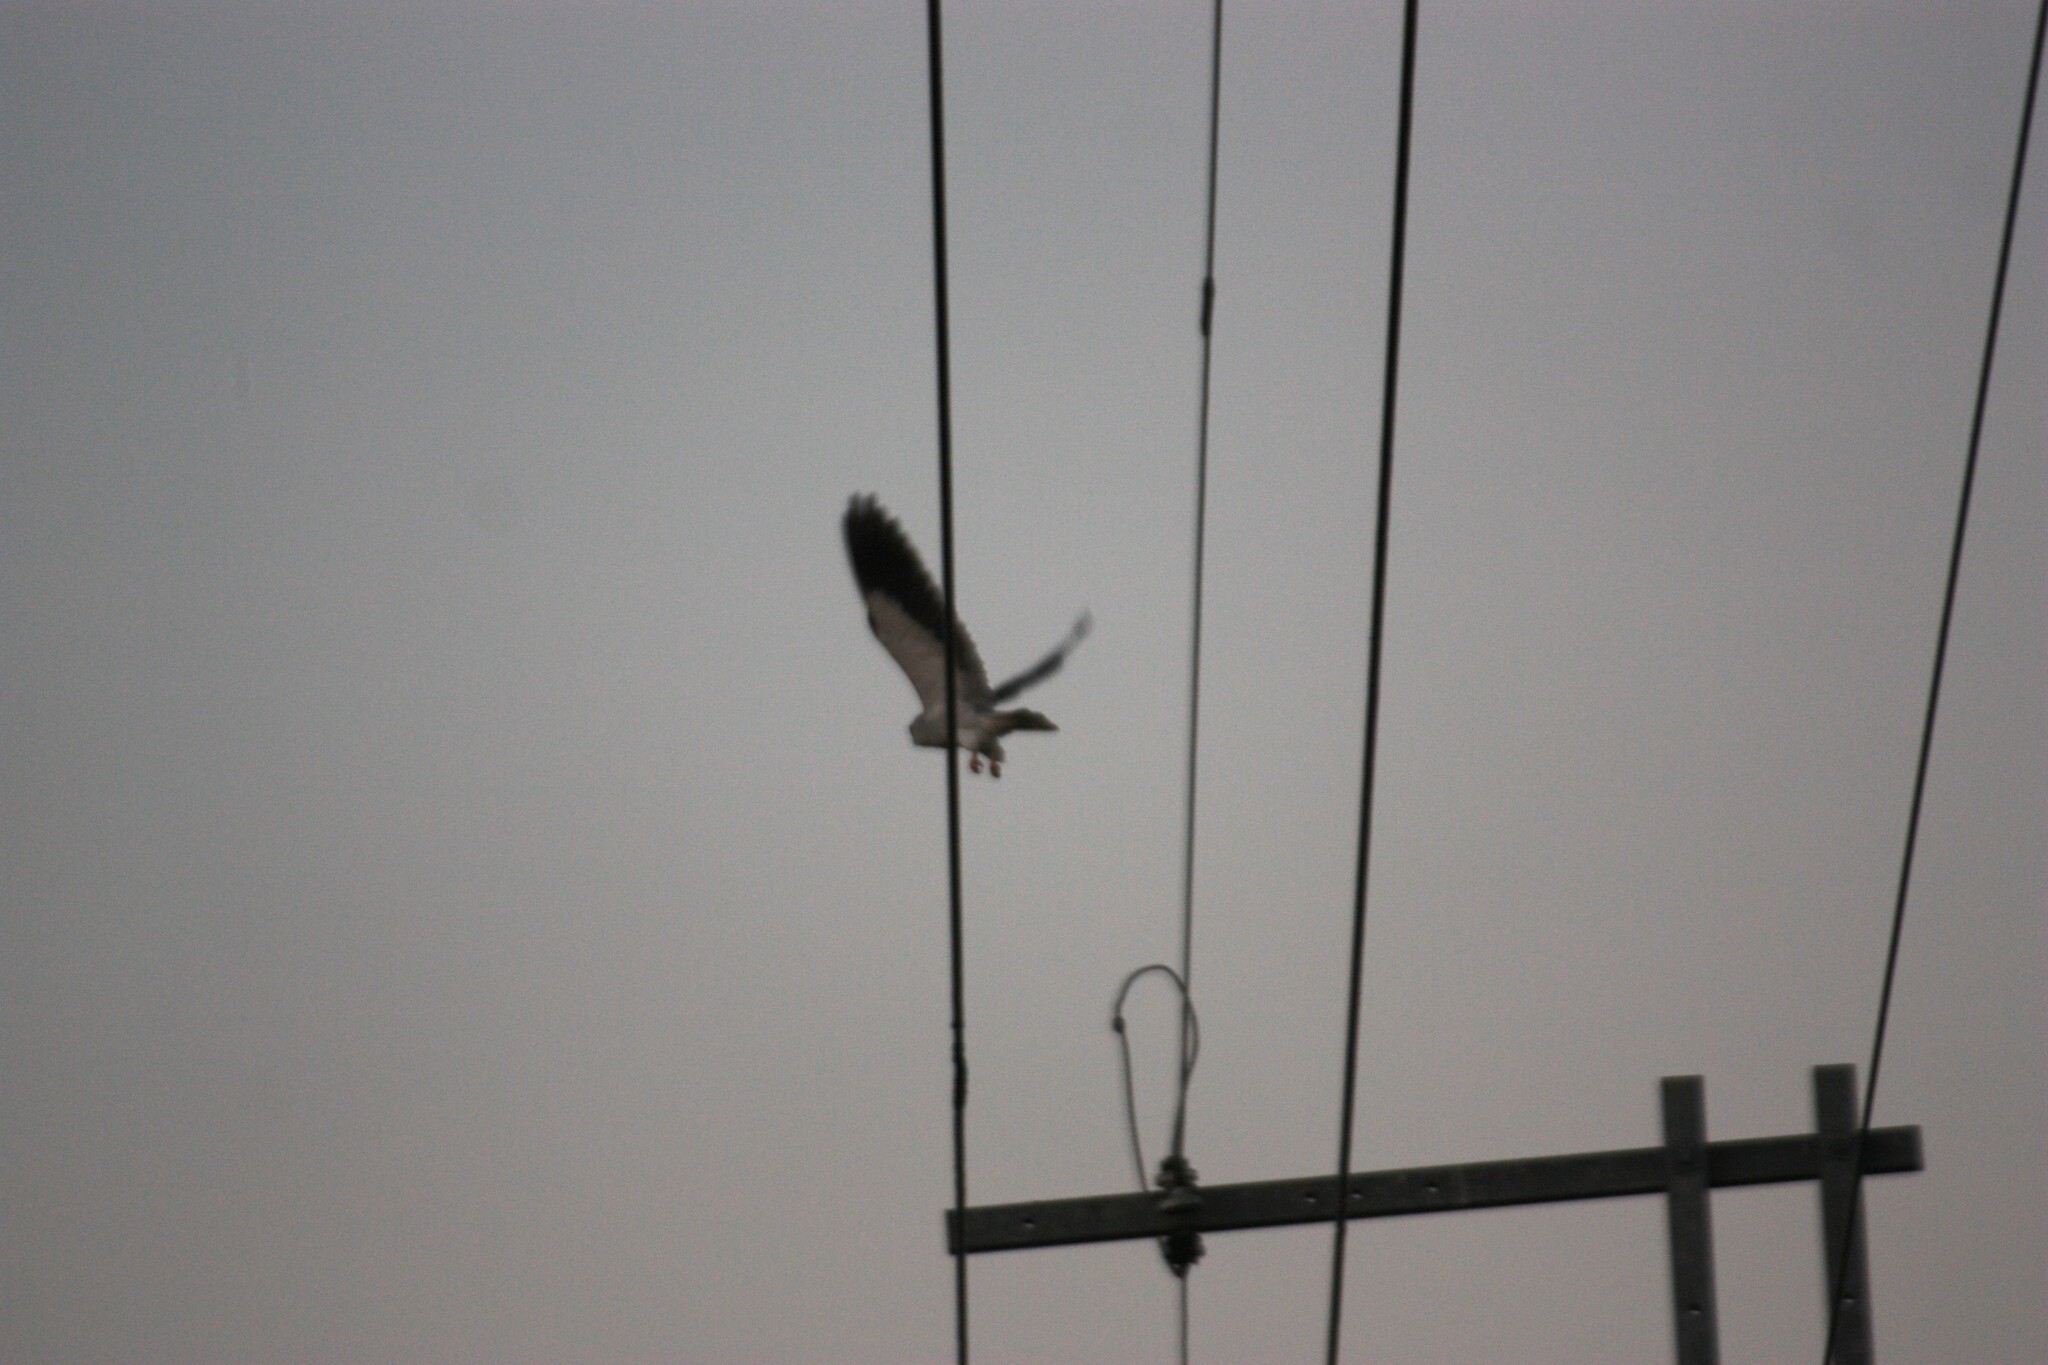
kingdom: Animalia
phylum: Chordata
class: Aves
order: Accipitriformes
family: Accipitridae
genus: Elanus
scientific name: Elanus caeruleus
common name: Black-winged kite
